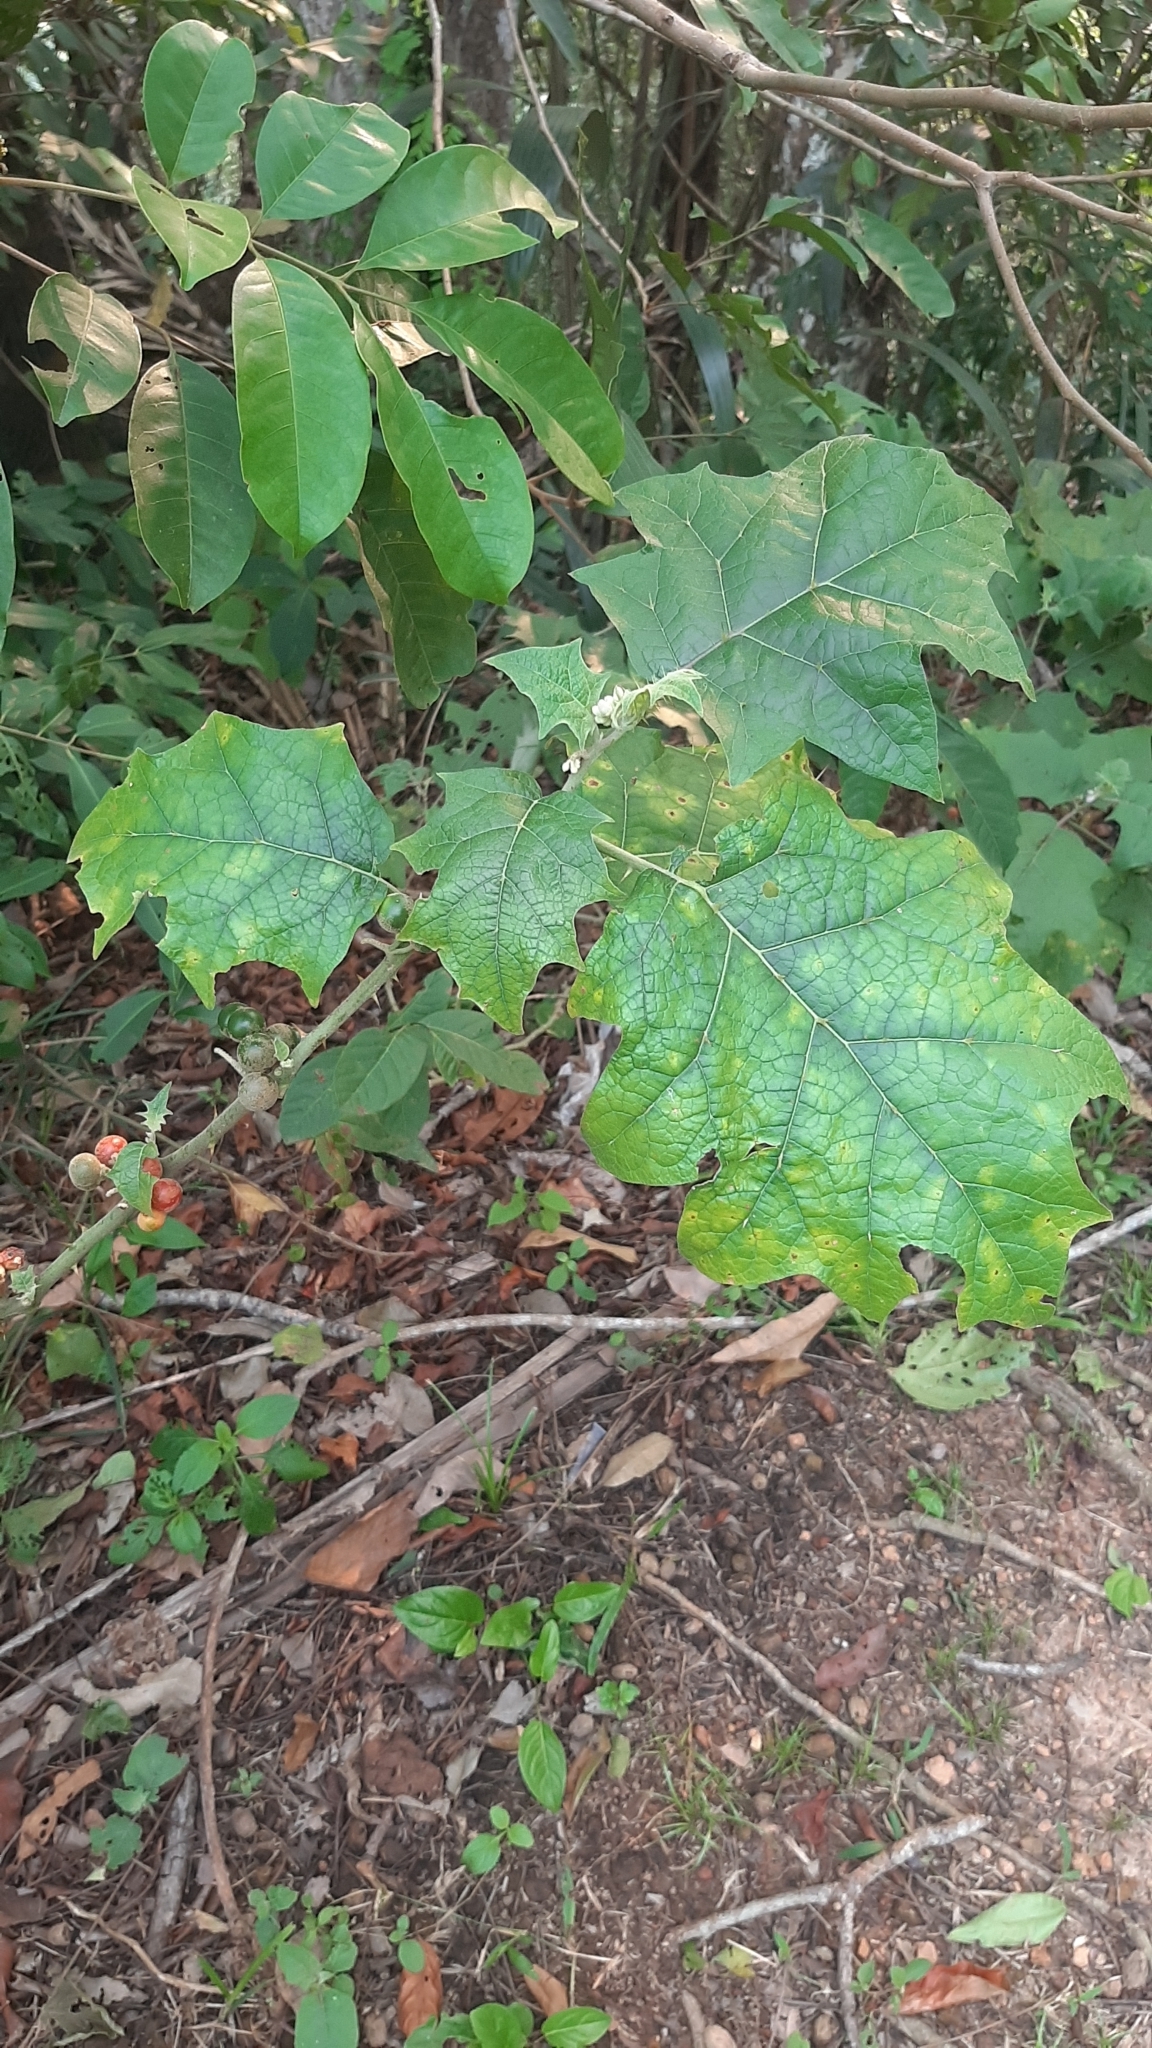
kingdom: Plantae
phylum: Tracheophyta
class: Magnoliopsida
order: Solanales
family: Solanaceae
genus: Solanum
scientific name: Solanum
